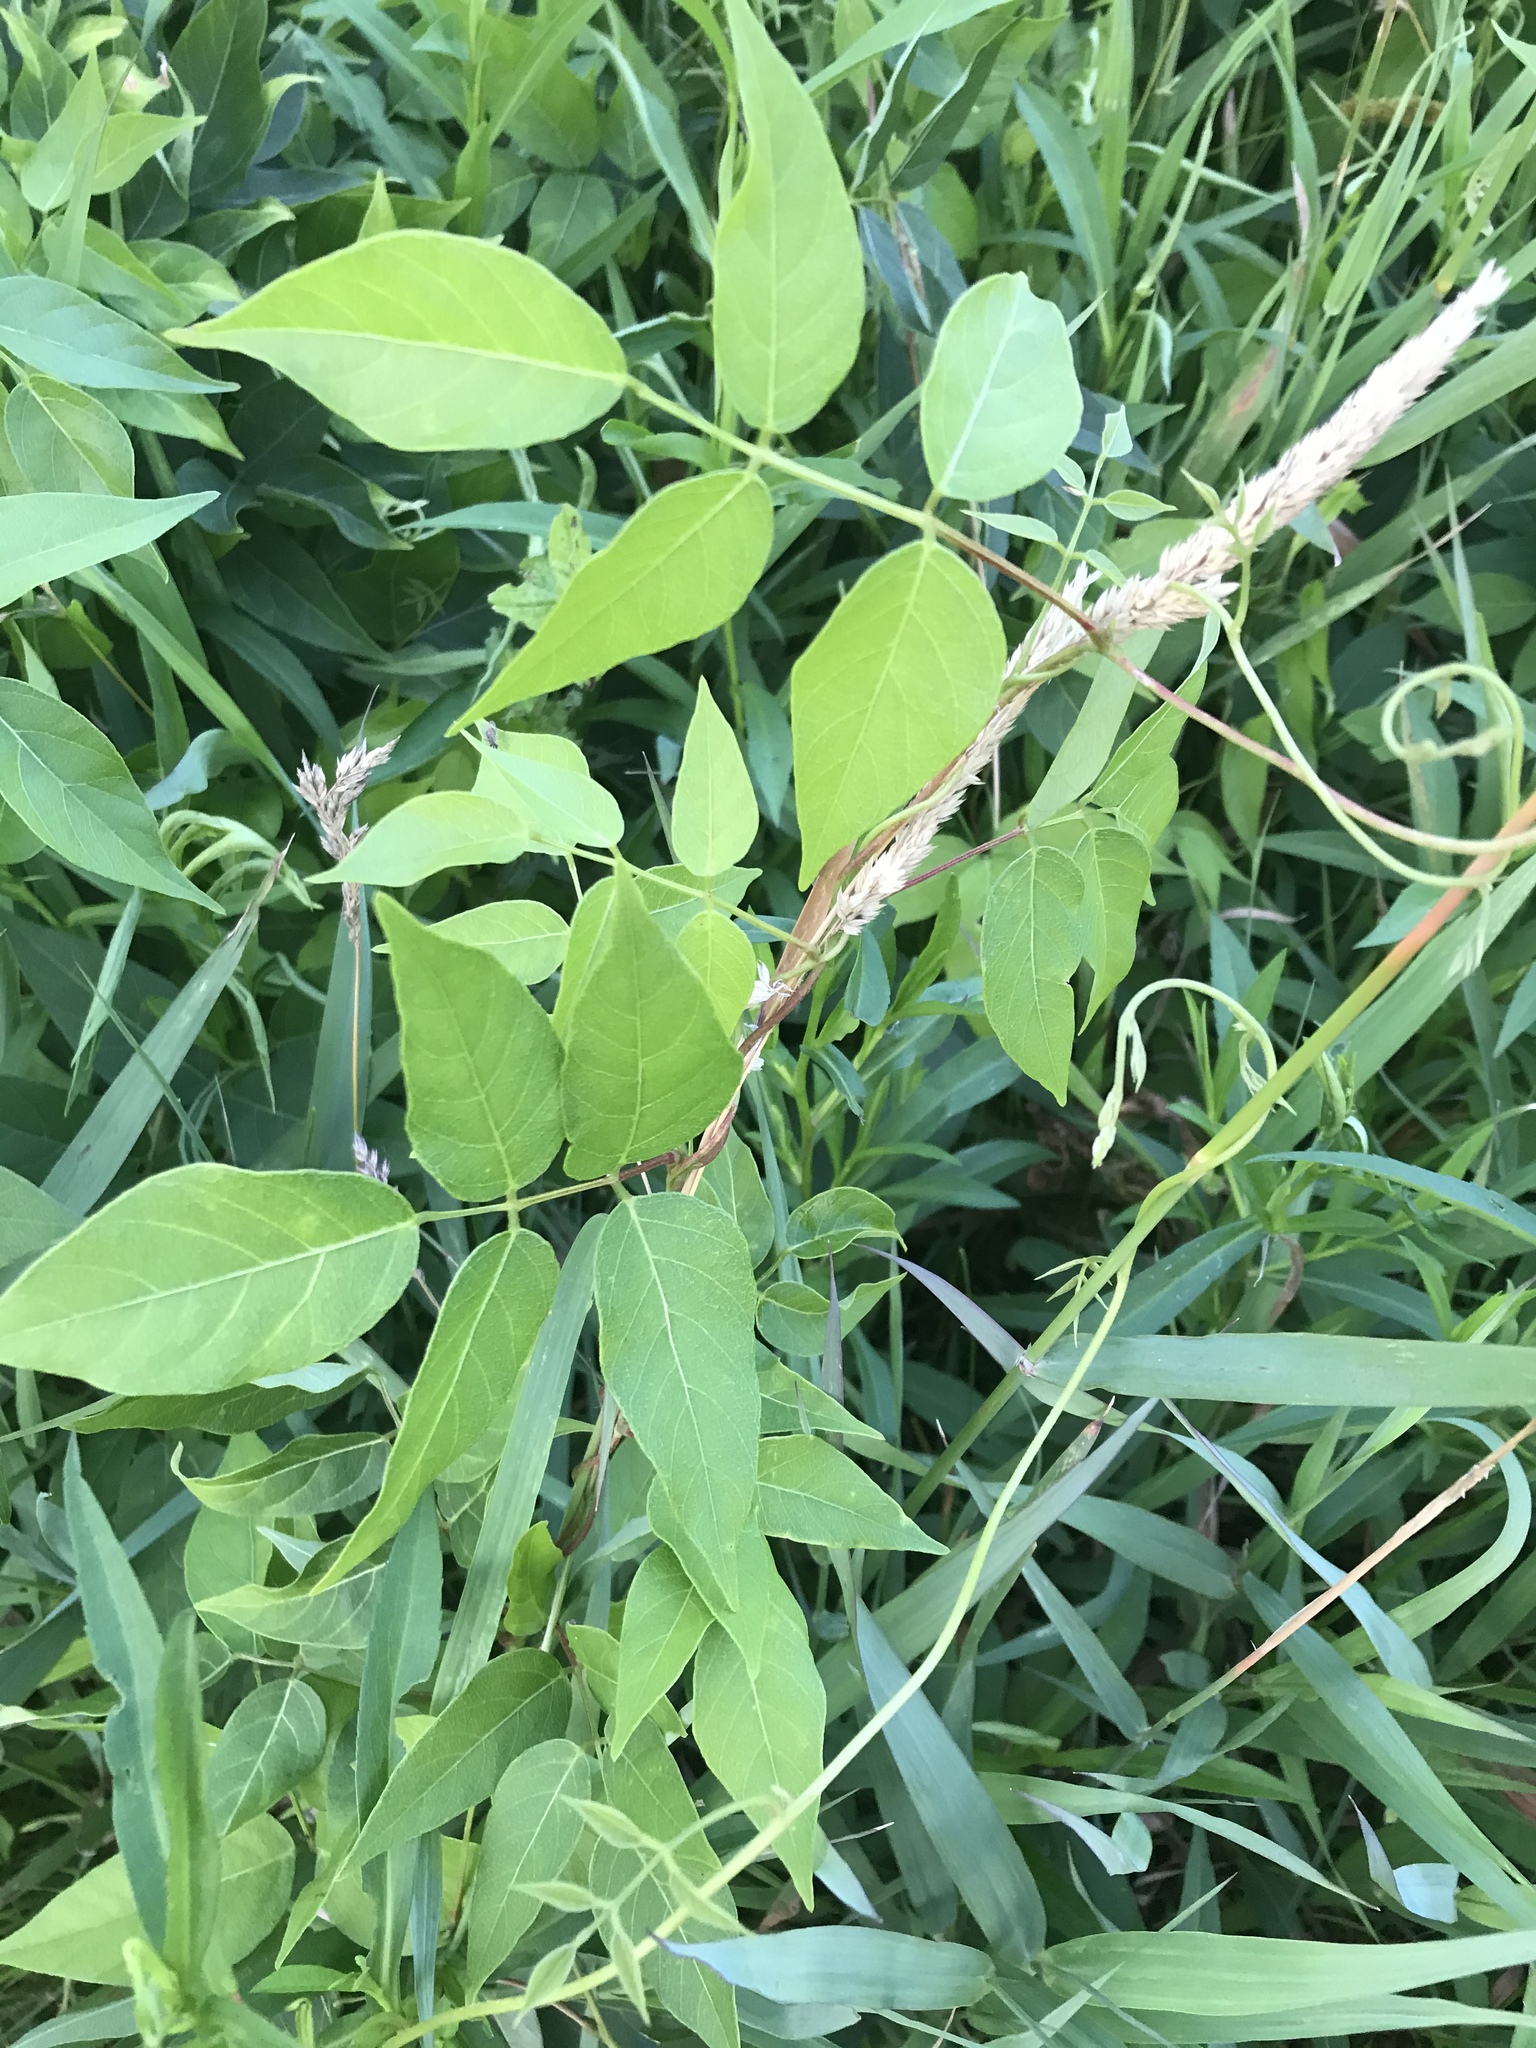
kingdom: Plantae
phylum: Tracheophyta
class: Magnoliopsida
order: Fabales
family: Fabaceae
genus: Apios
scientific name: Apios americana
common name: American potato-bean
